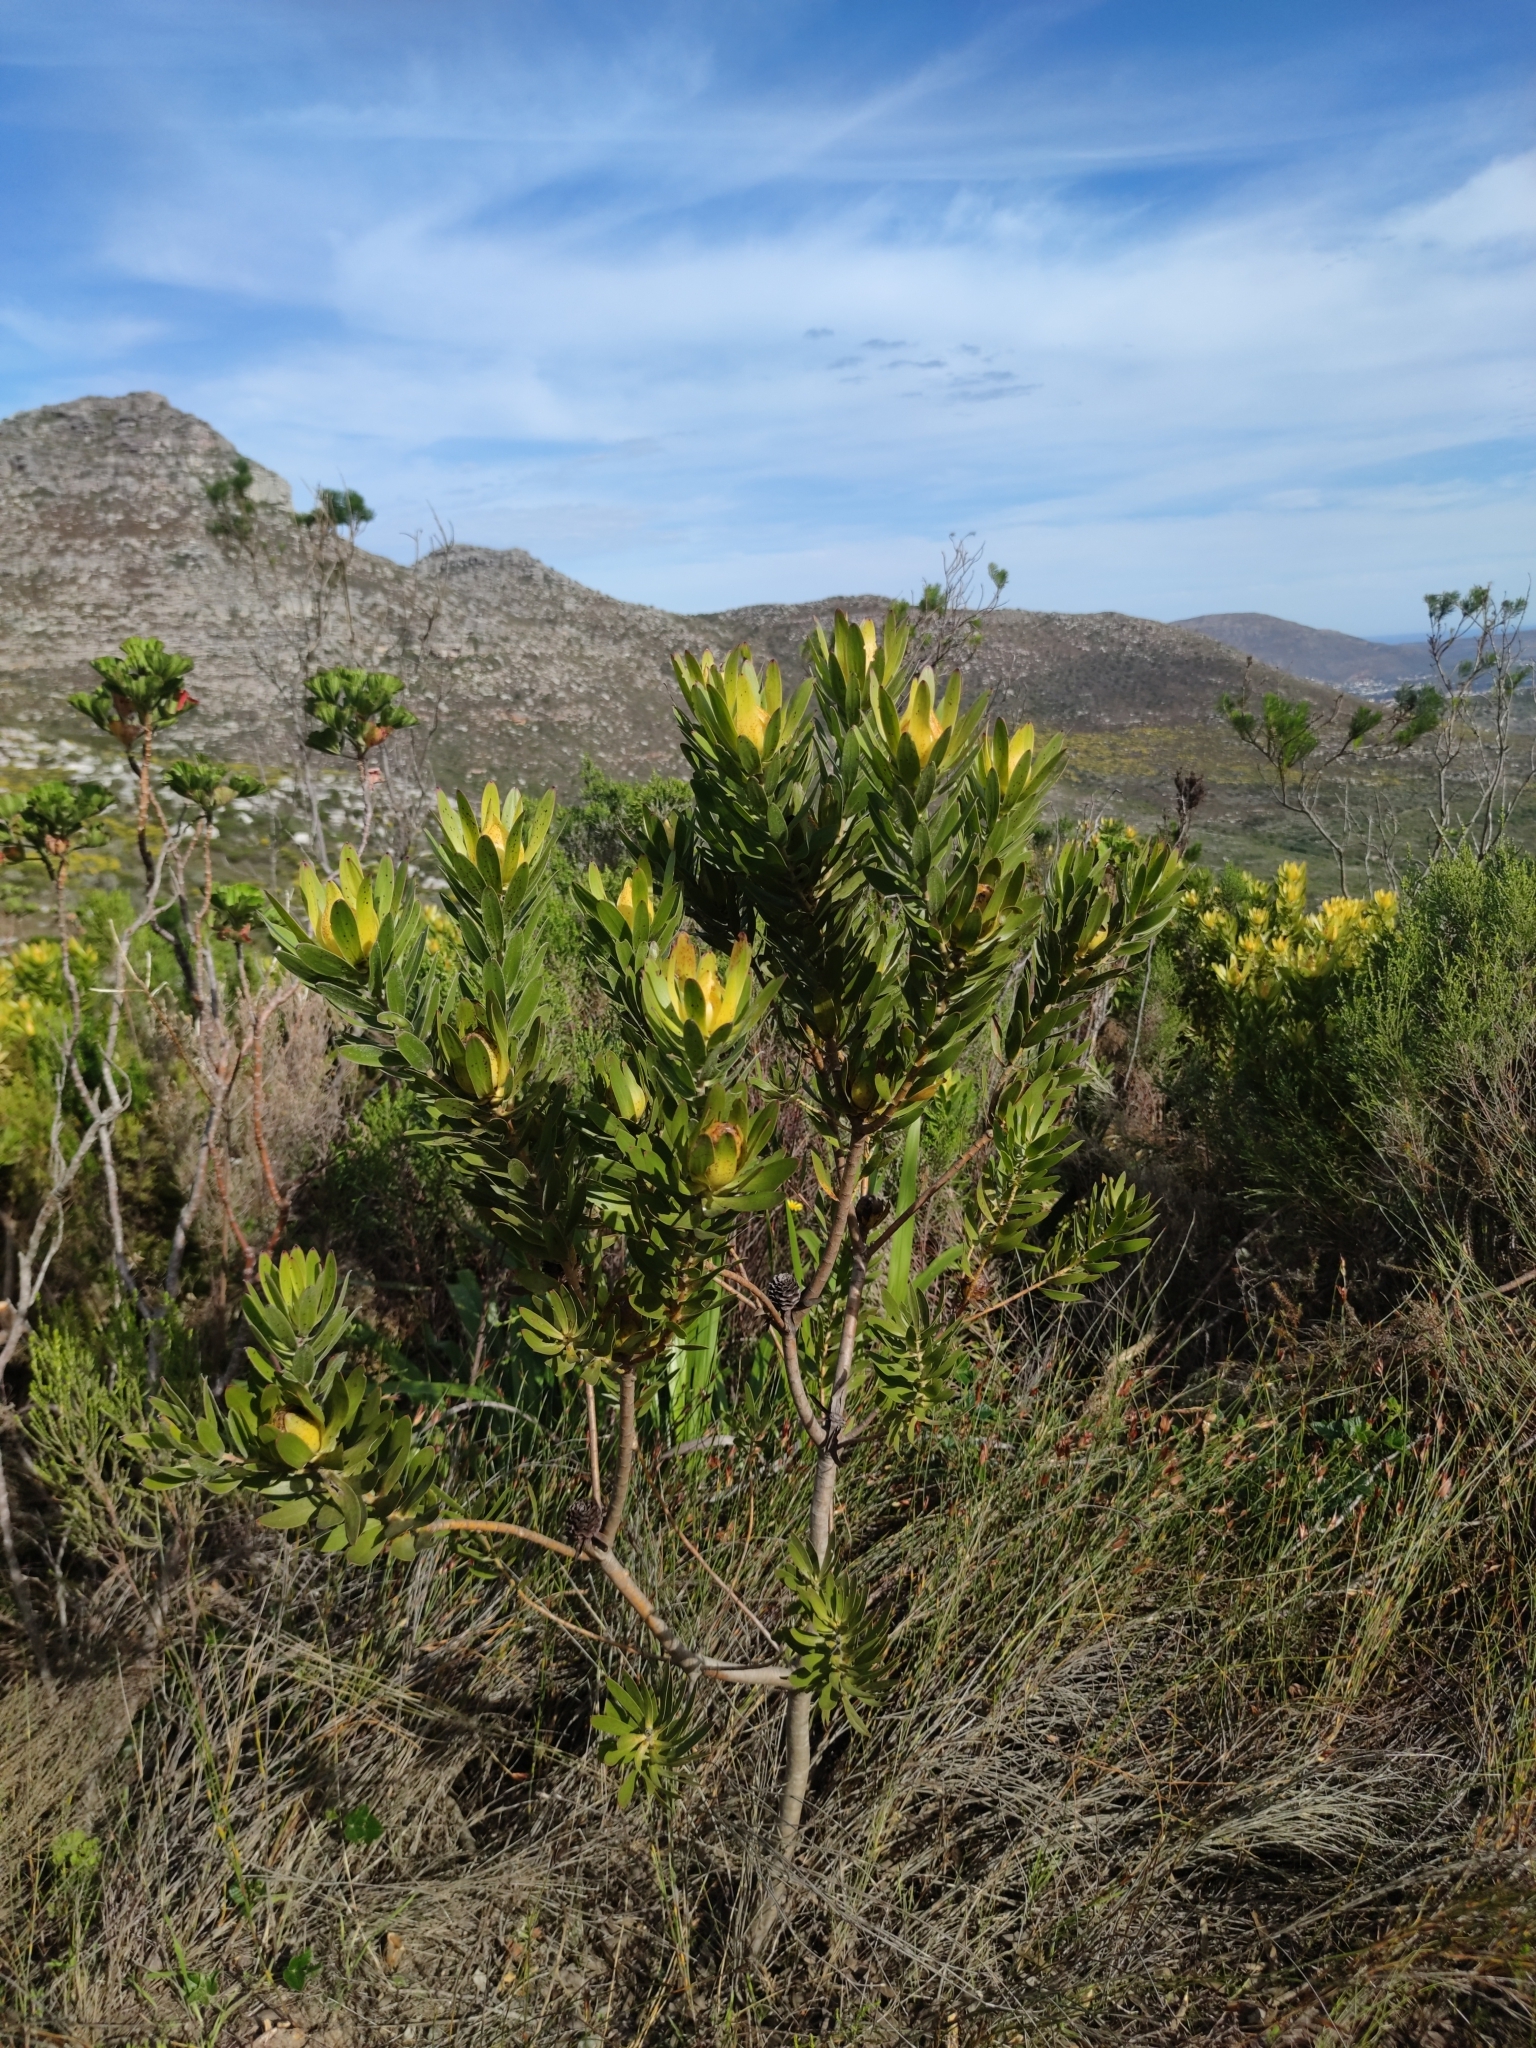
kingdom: Plantae
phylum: Tracheophyta
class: Magnoliopsida
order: Proteales
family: Proteaceae
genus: Leucadendron
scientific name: Leucadendron laureolum
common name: Golden sunshinebush
